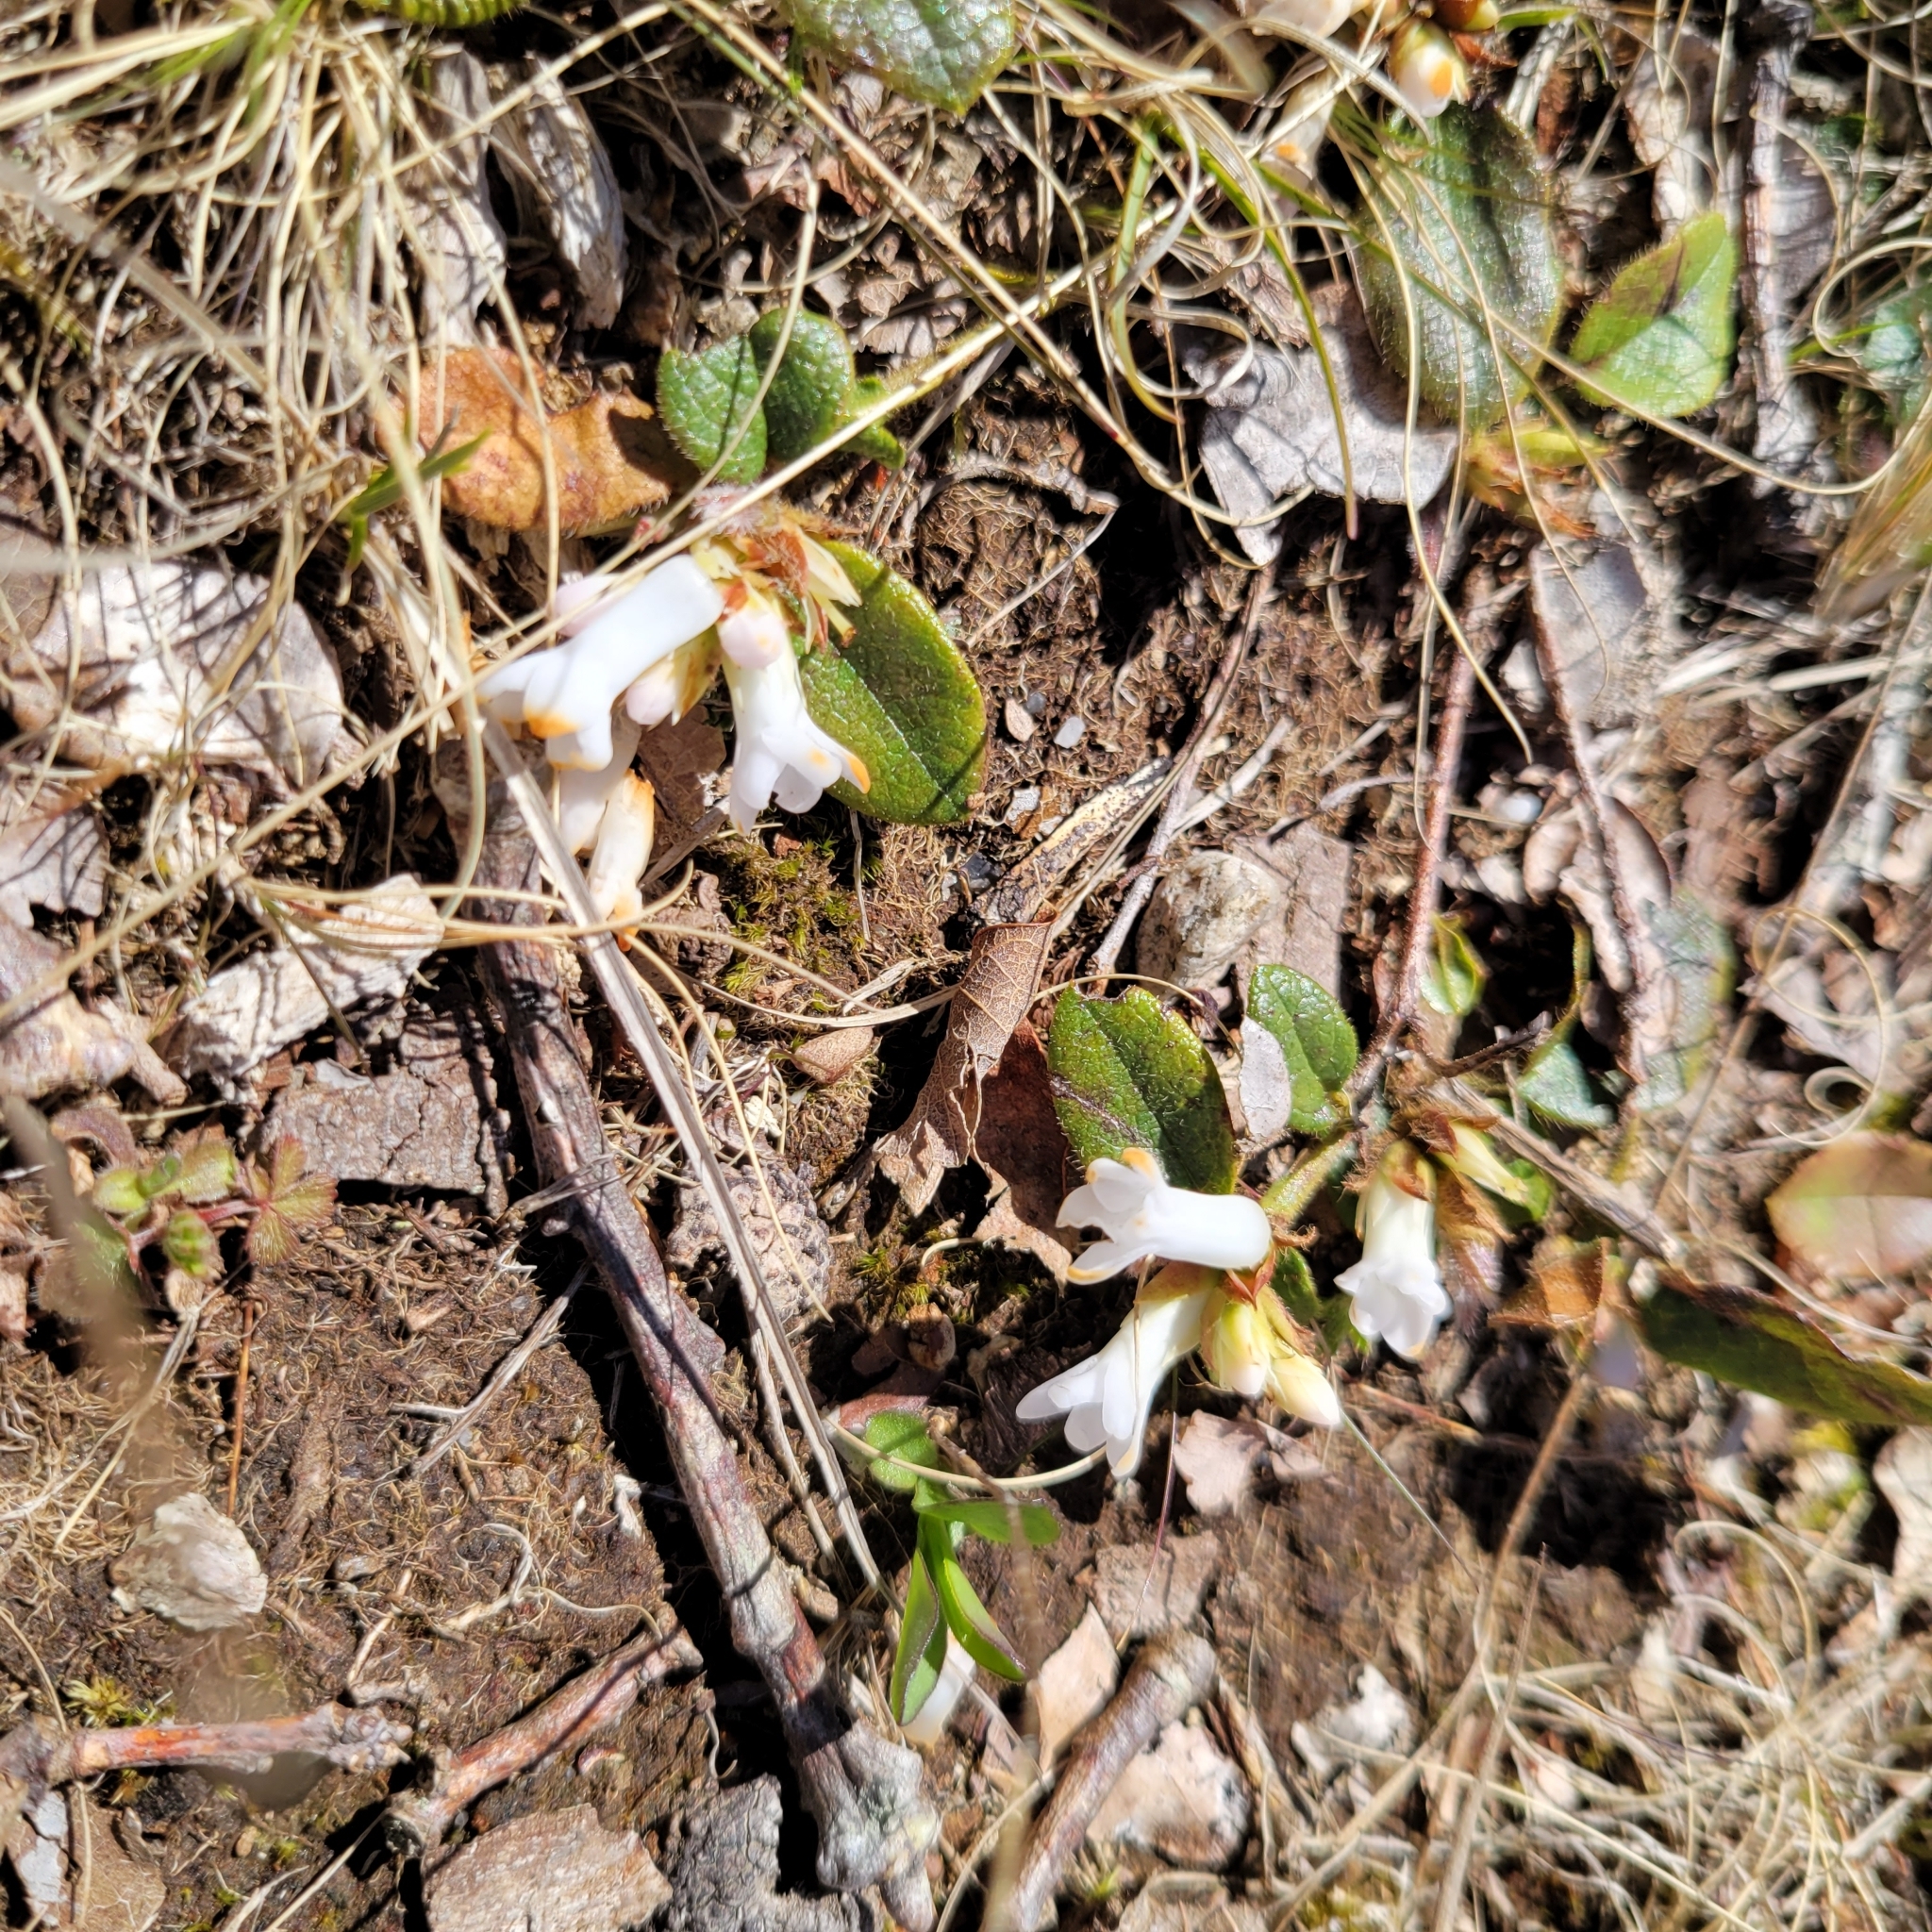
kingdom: Plantae
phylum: Tracheophyta
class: Magnoliopsida
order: Ericales
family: Ericaceae
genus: Epigaea
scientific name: Epigaea repens
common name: Gravelroot
